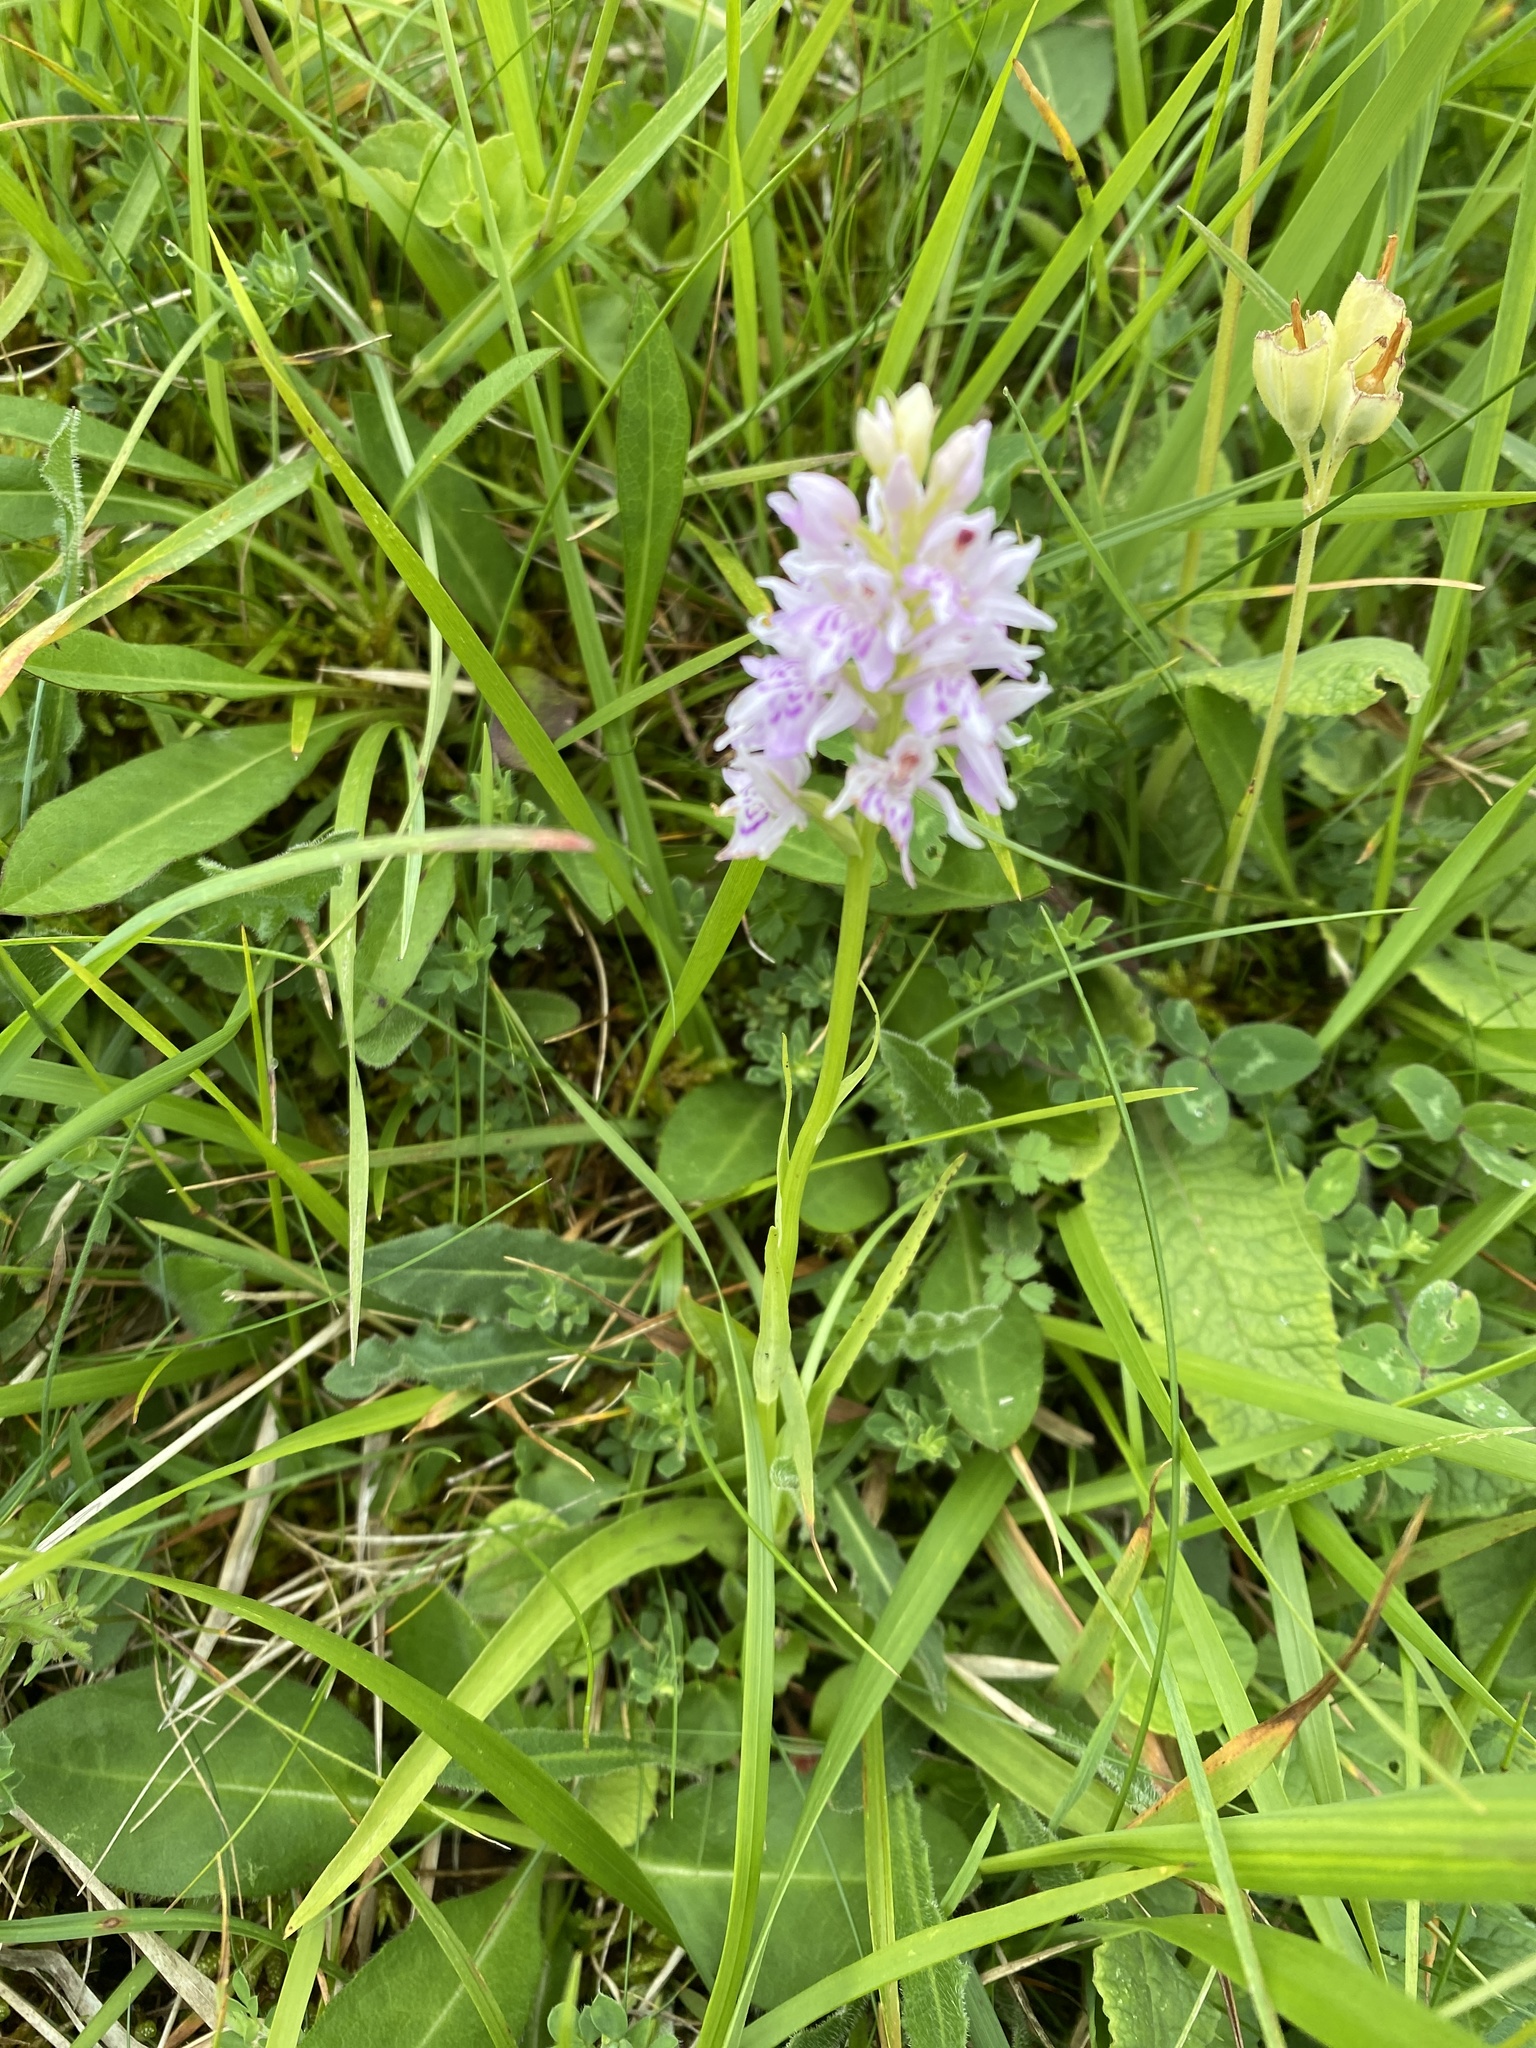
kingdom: Plantae
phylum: Tracheophyta
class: Liliopsida
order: Asparagales
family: Orchidaceae
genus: Dactylorhiza
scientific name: Dactylorhiza maculata
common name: Heath spotted-orchid
